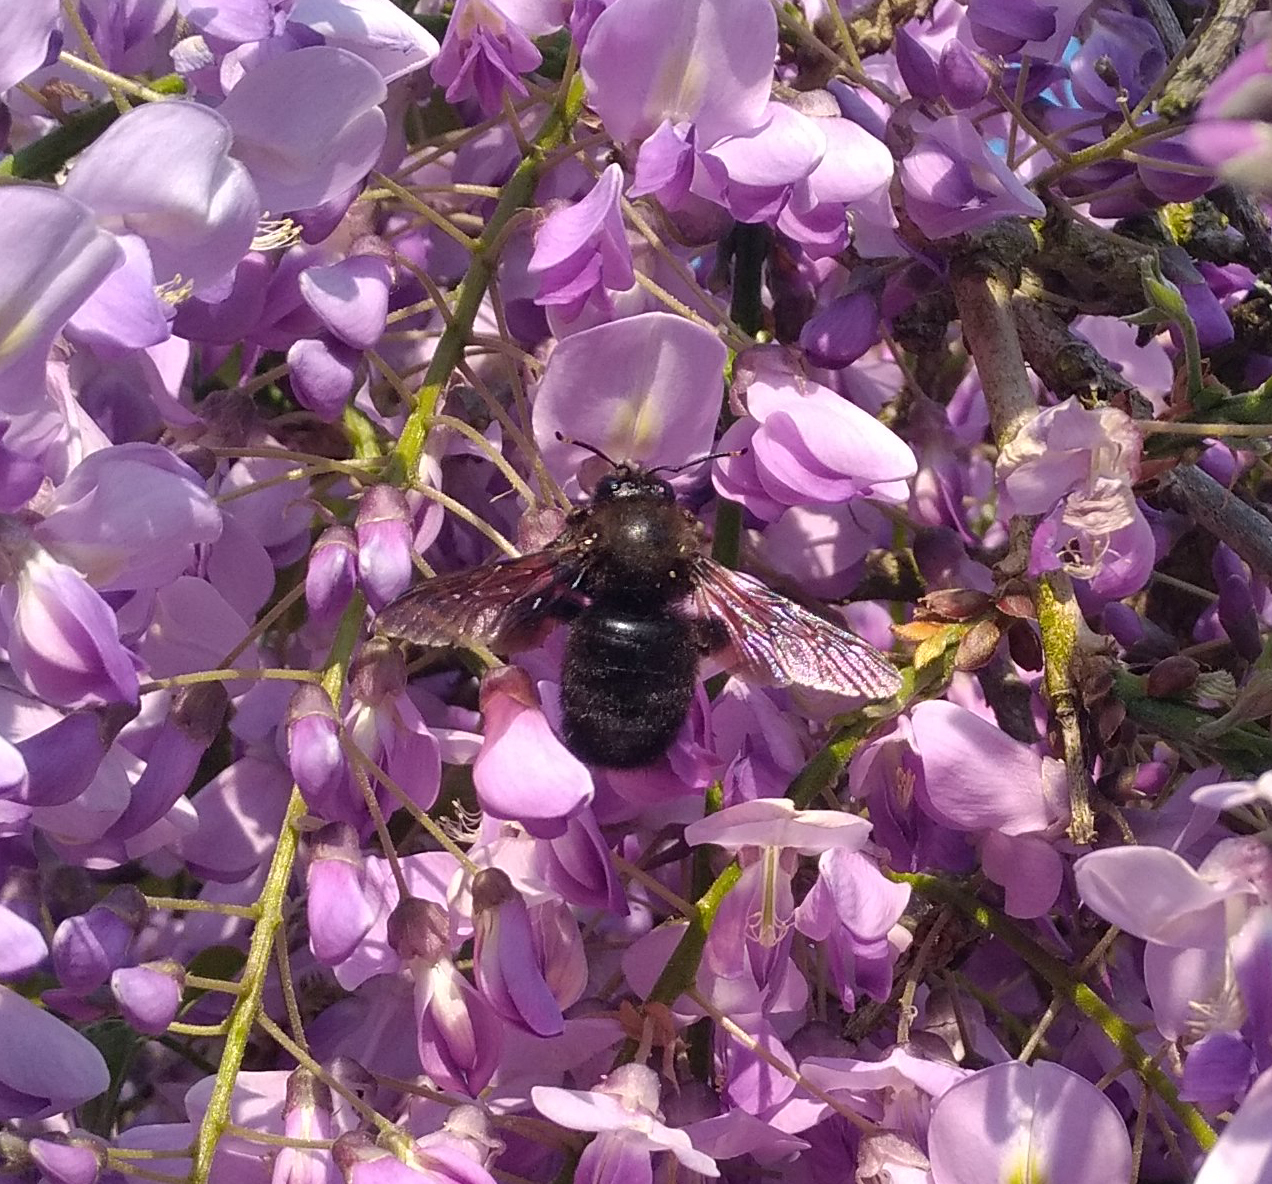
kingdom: Animalia
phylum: Arthropoda
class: Insecta
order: Hymenoptera
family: Apidae
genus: Xylocopa
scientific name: Xylocopa violacea
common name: Violet carpenter bee
